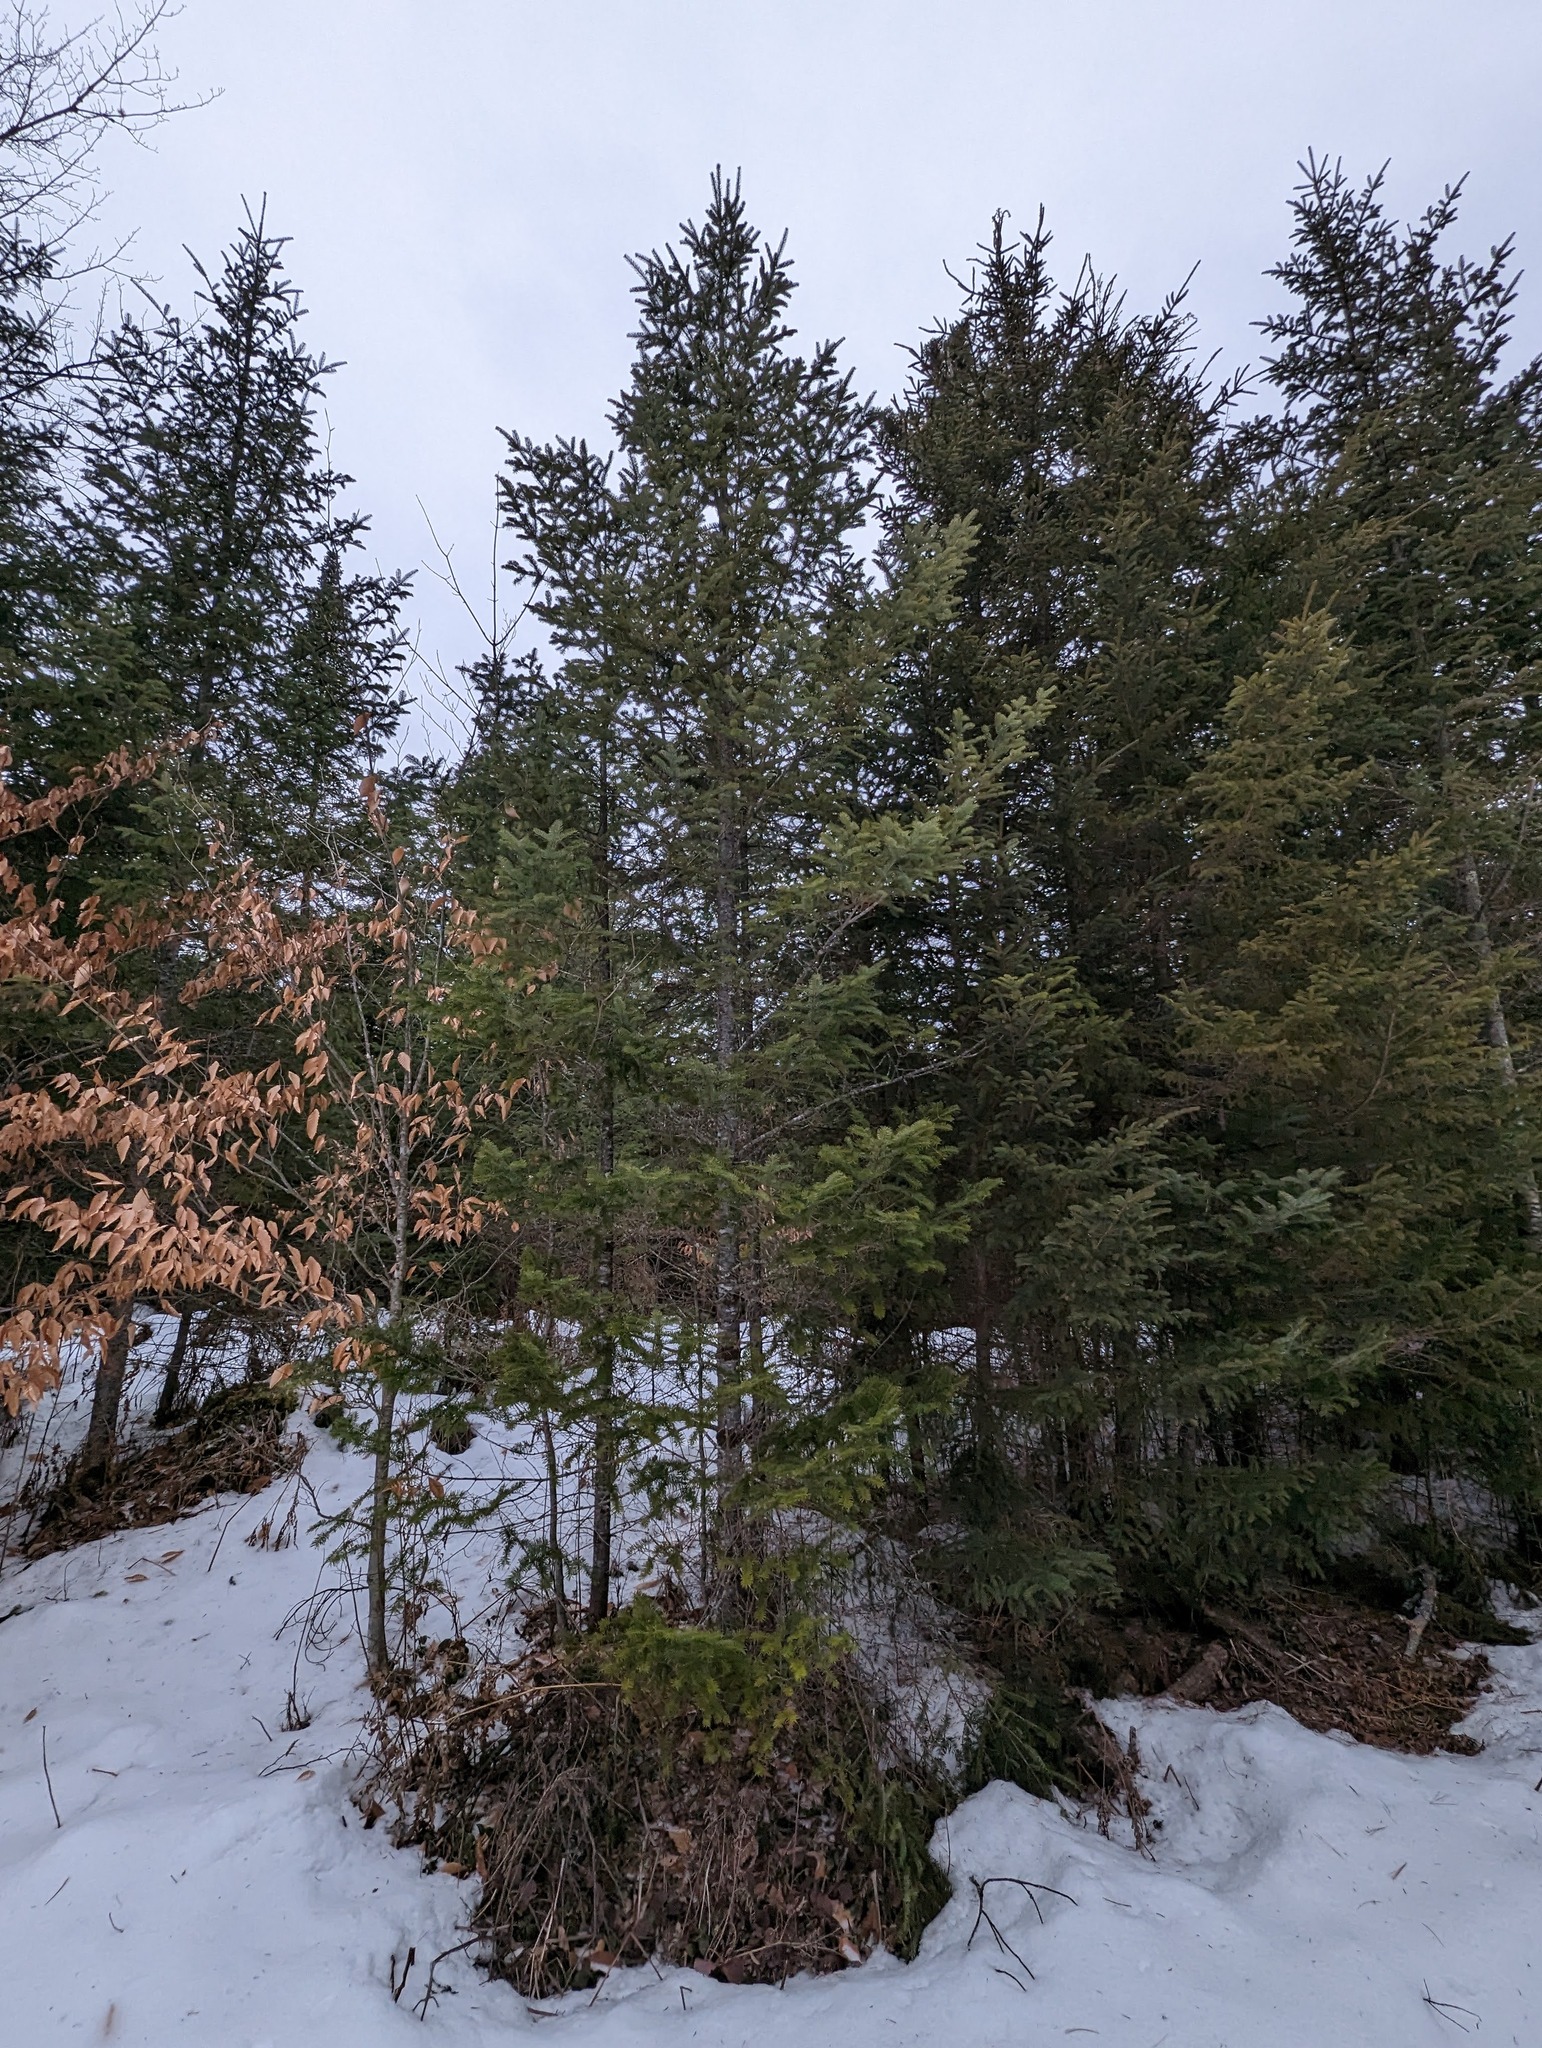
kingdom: Plantae
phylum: Tracheophyta
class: Pinopsida
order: Pinales
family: Pinaceae
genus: Abies
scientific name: Abies balsamea
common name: Balsam fir
